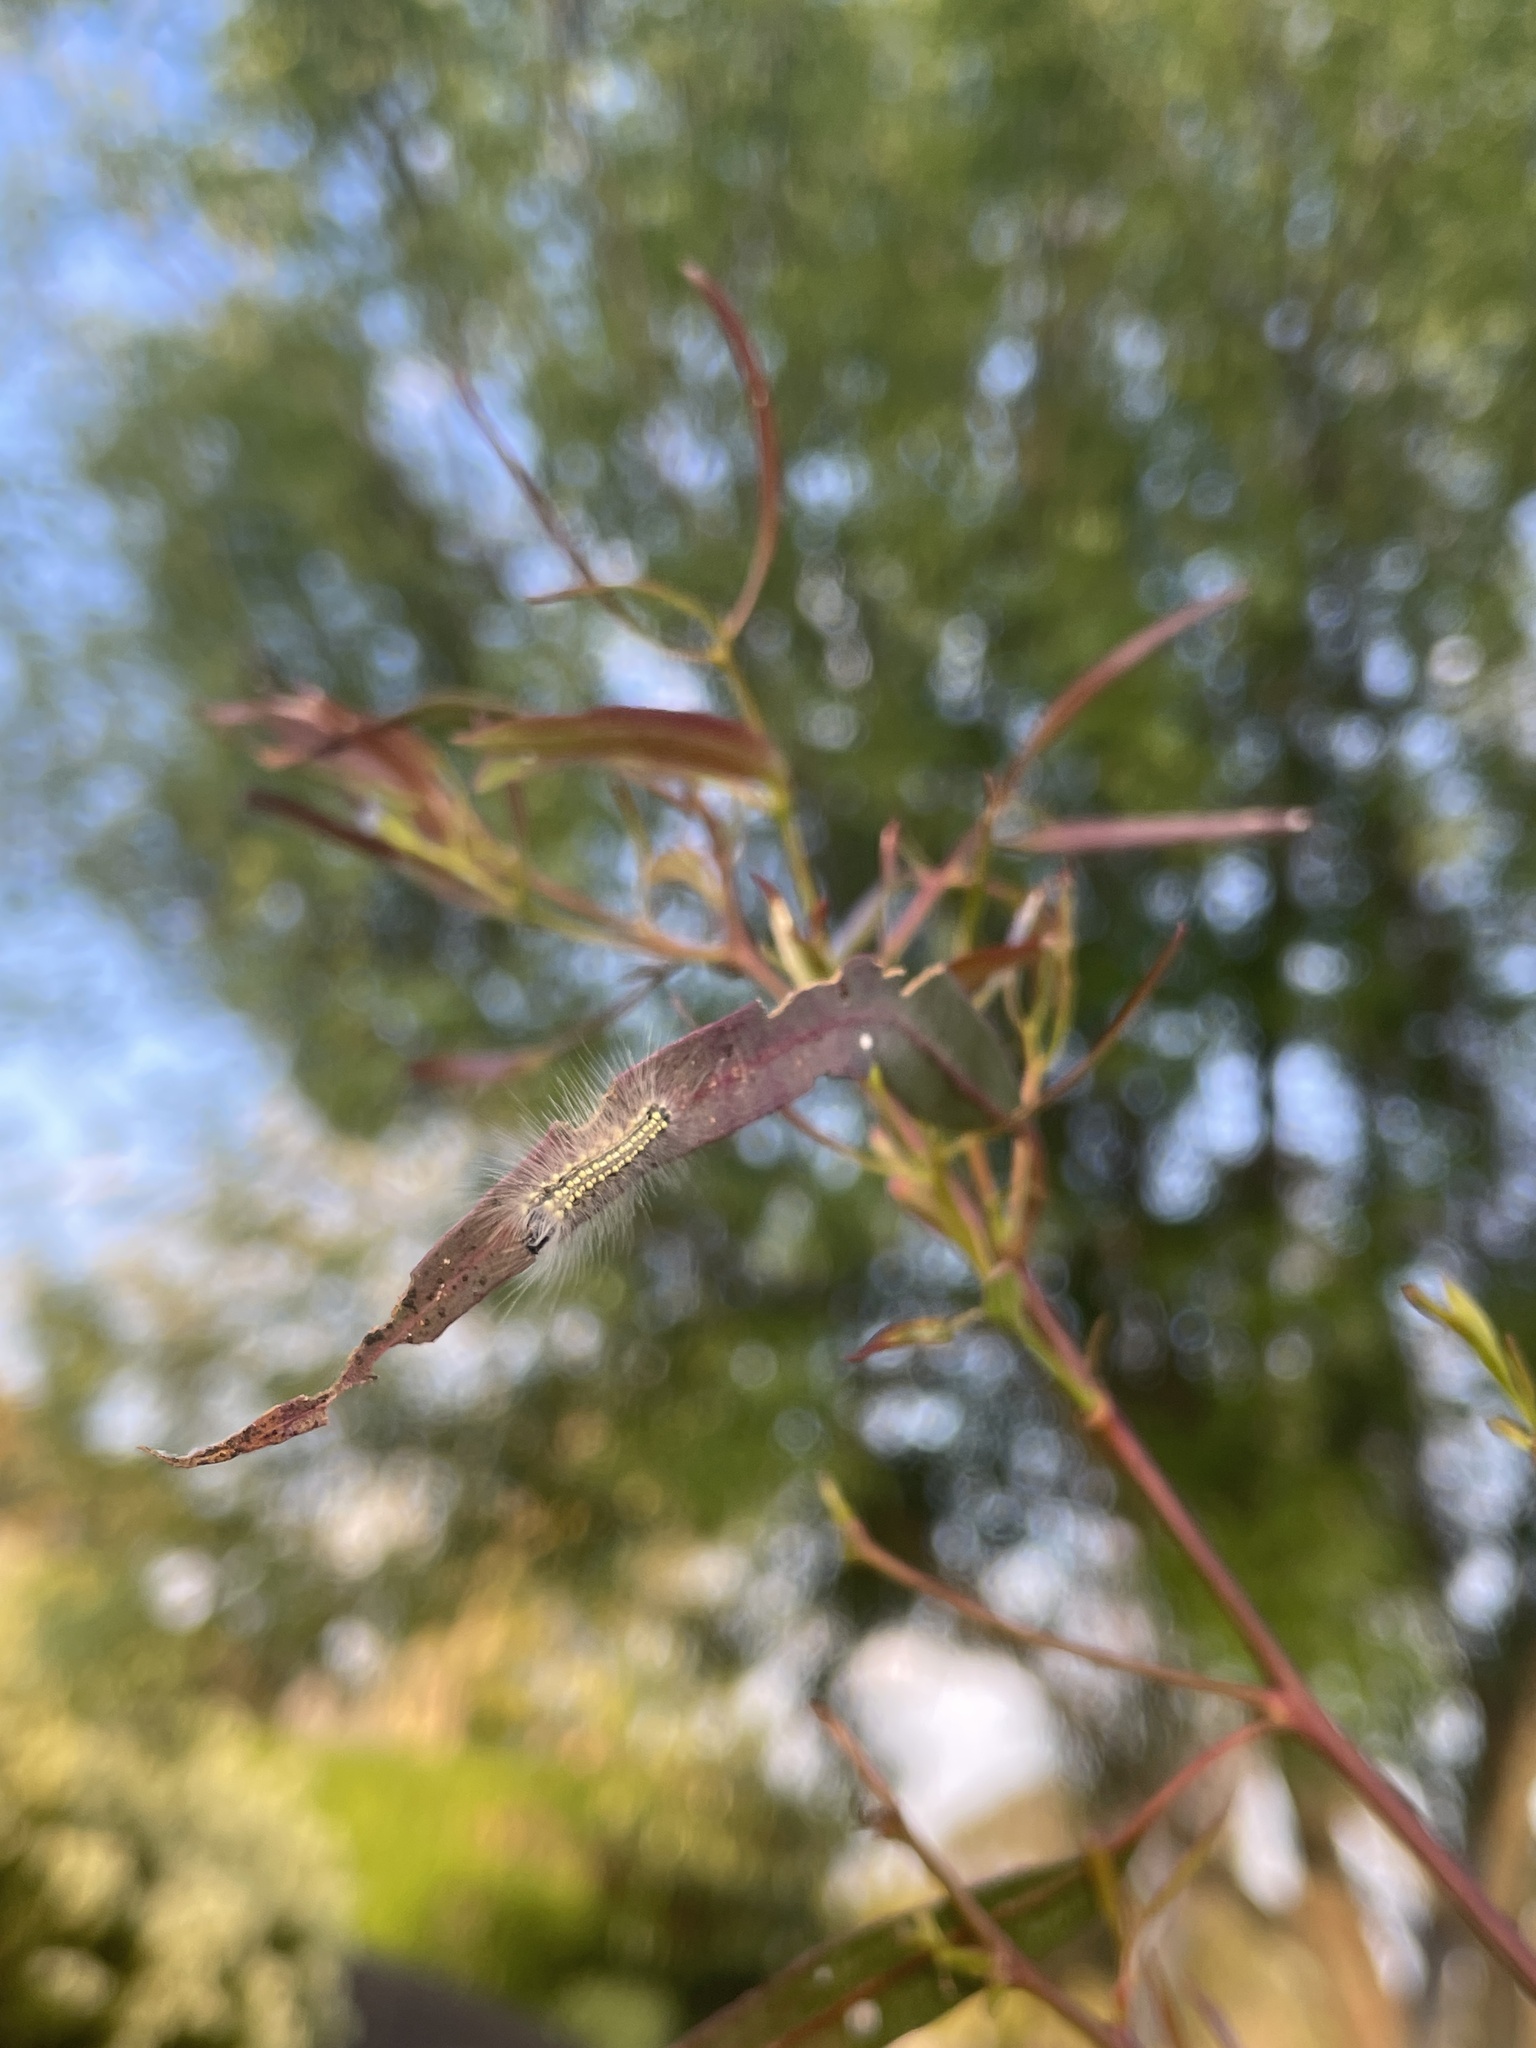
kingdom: Animalia
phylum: Arthropoda
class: Insecta
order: Lepidoptera
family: Nolidae
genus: Uraba
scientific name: Uraba lugens
